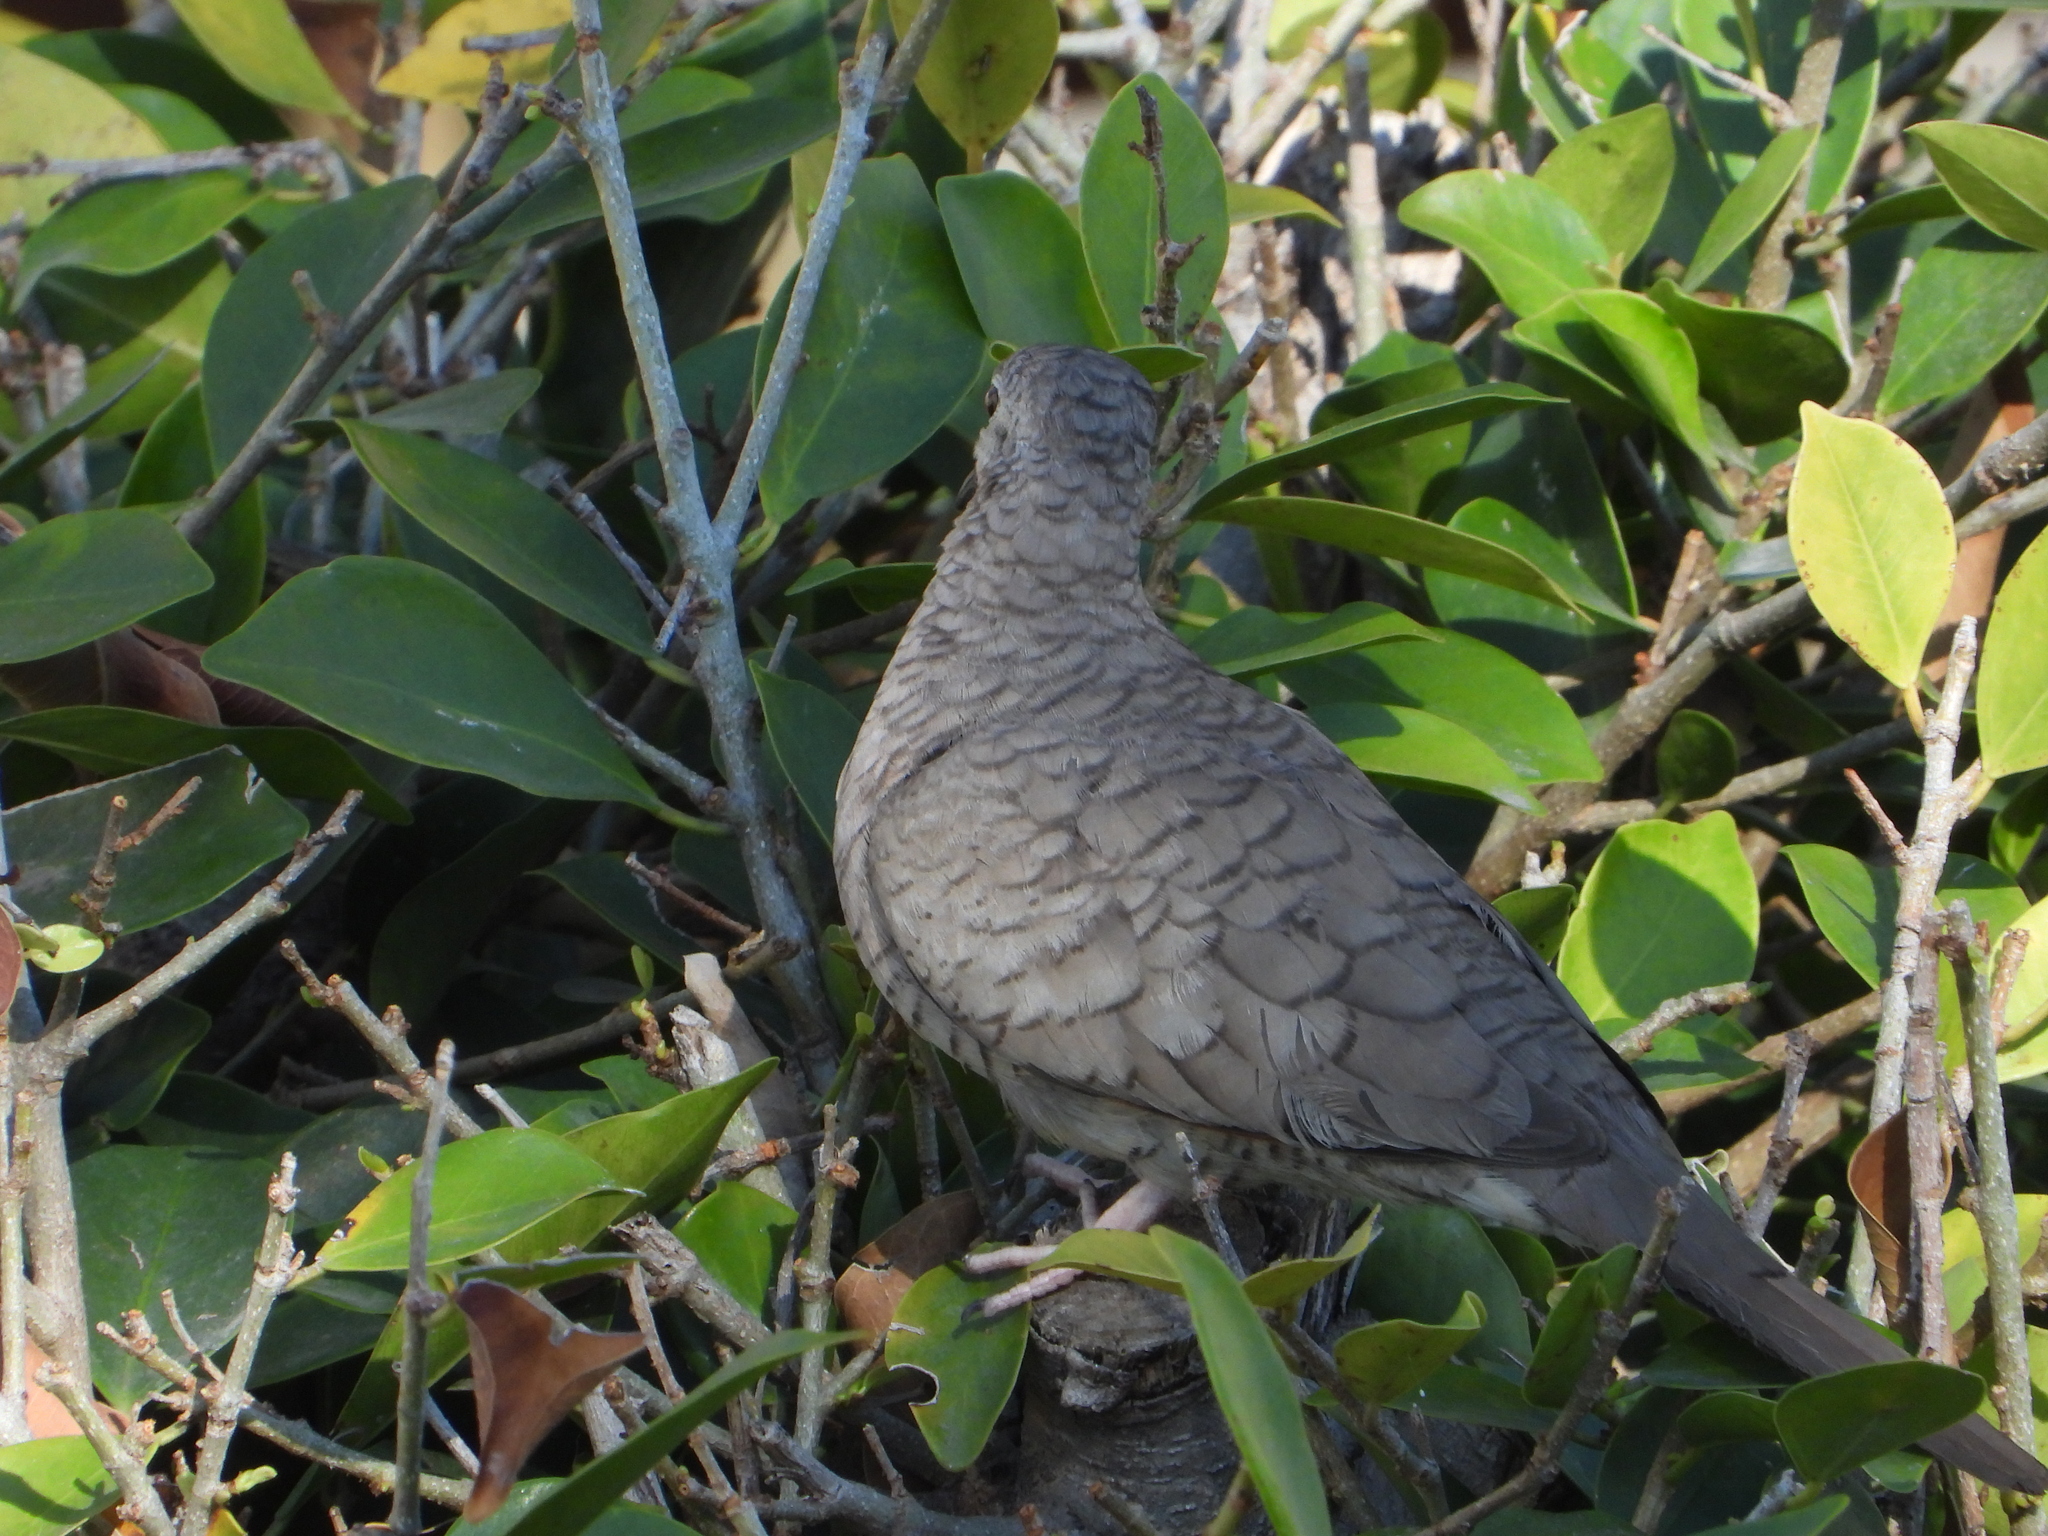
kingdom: Animalia
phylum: Chordata
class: Aves
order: Columbiformes
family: Columbidae
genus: Columbina
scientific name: Columbina inca
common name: Inca dove
